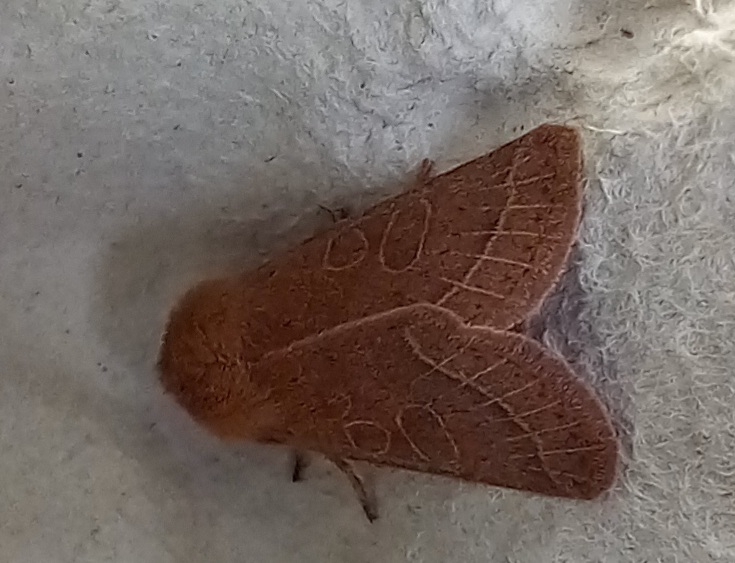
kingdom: Animalia
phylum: Arthropoda
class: Insecta
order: Lepidoptera
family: Noctuidae
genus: Orthosia
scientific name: Orthosia cerasi
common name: Common quaker
